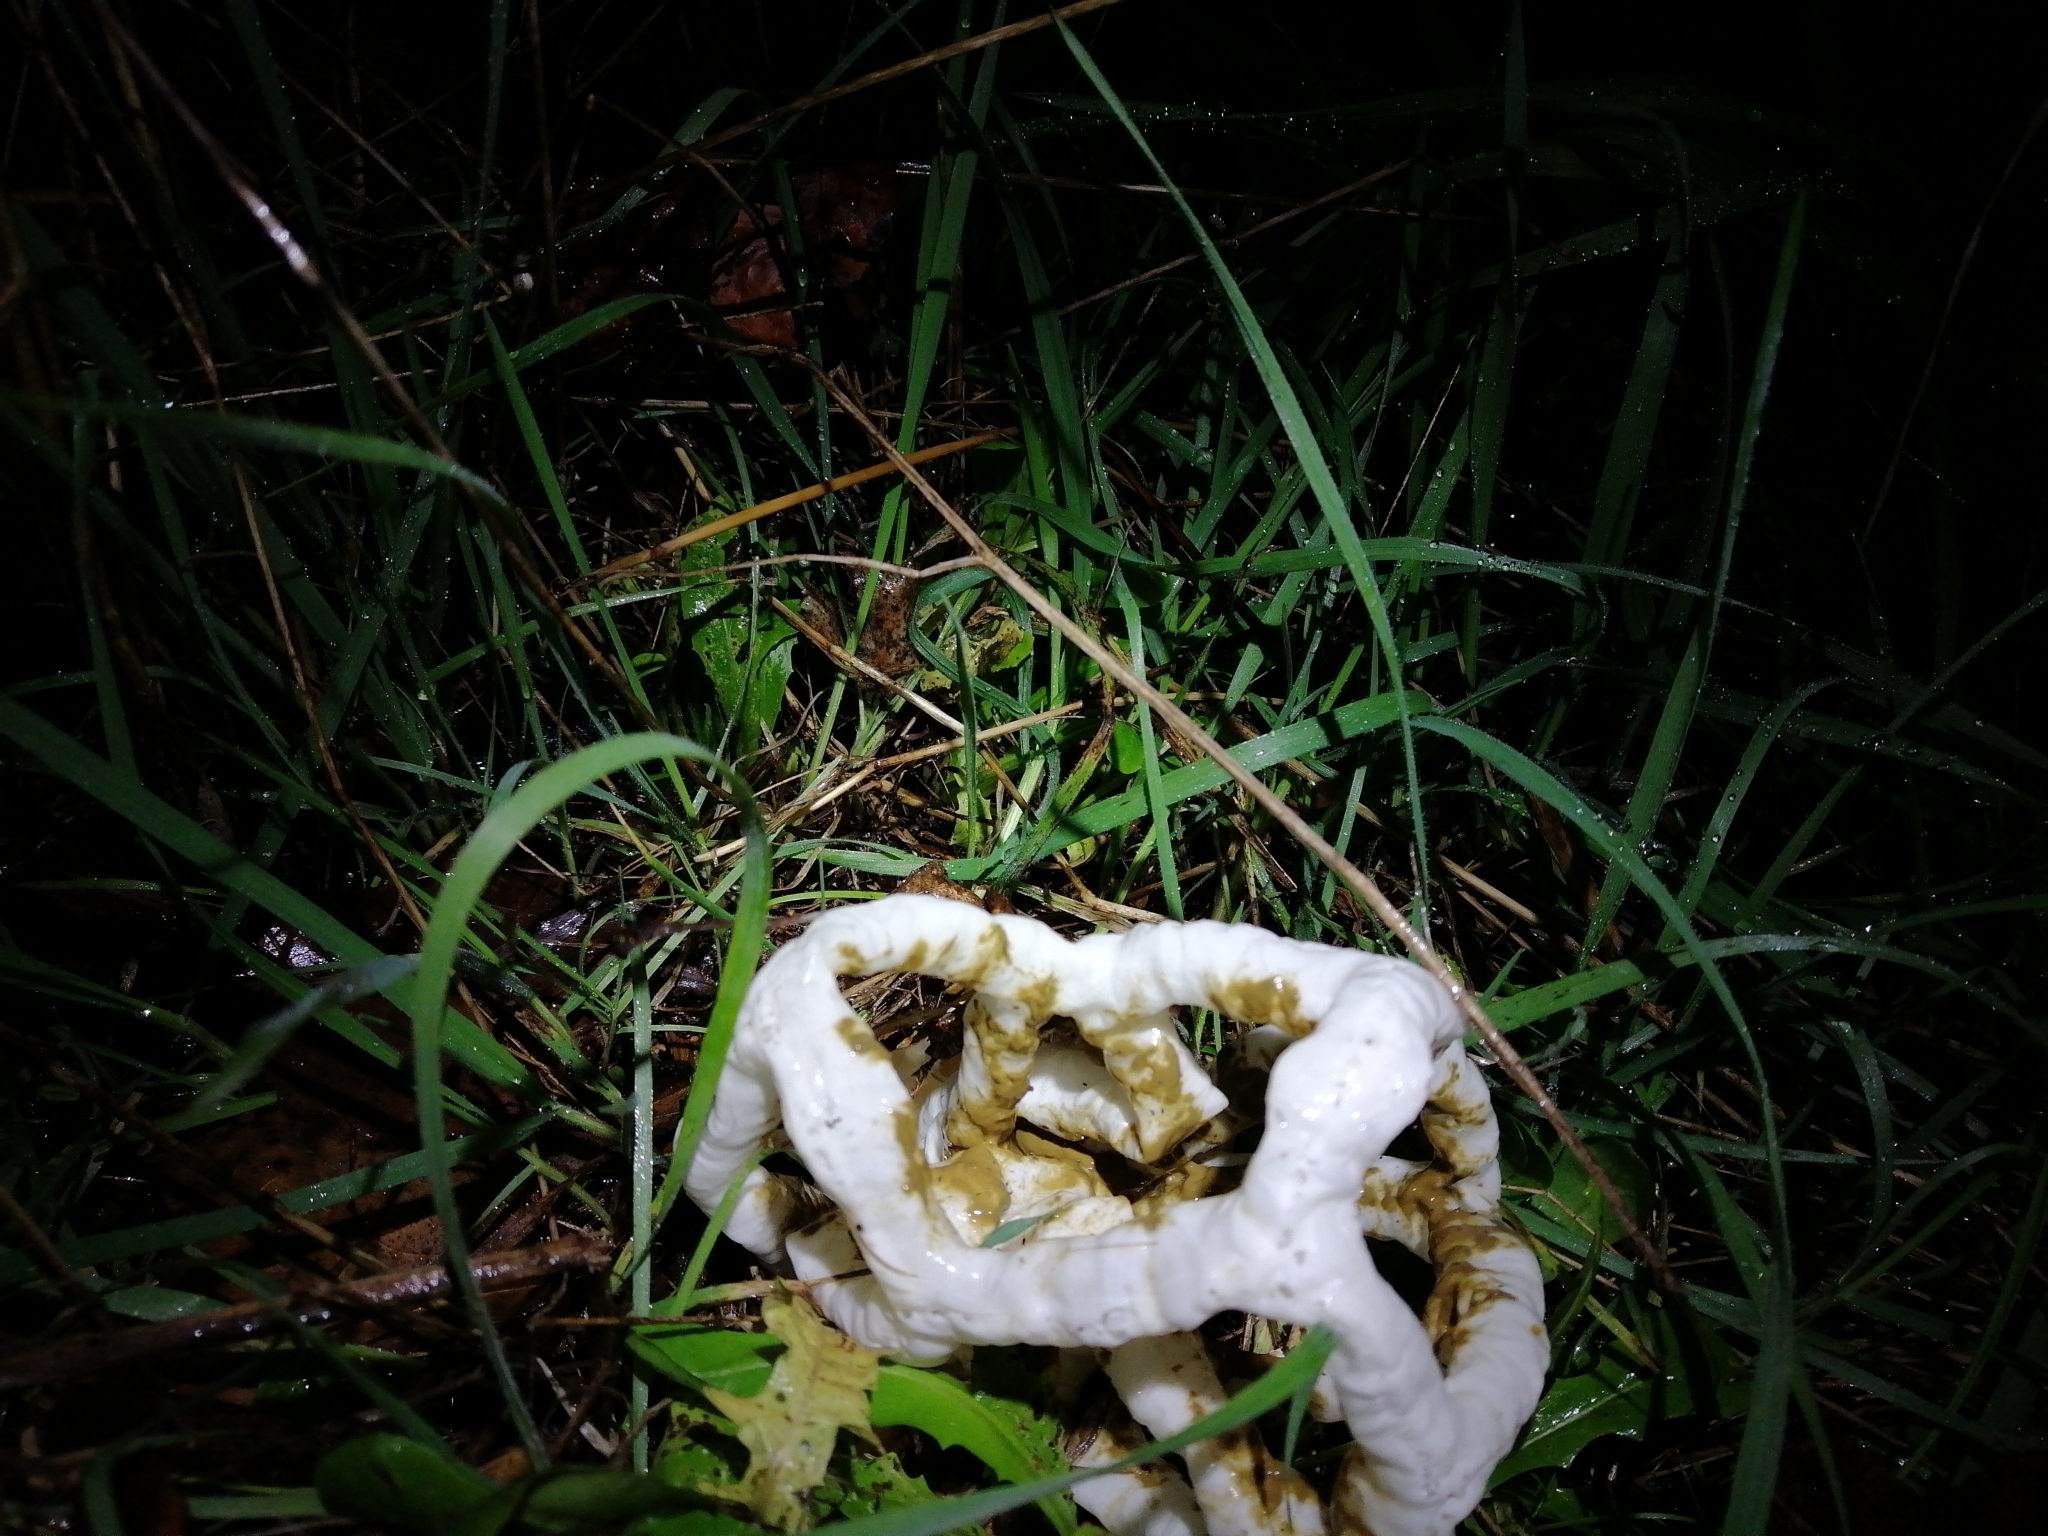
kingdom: Fungi
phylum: Basidiomycota
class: Agaricomycetes
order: Phallales
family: Phallaceae
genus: Ileodictyon
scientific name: Ileodictyon cibarium
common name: Basket fungus
